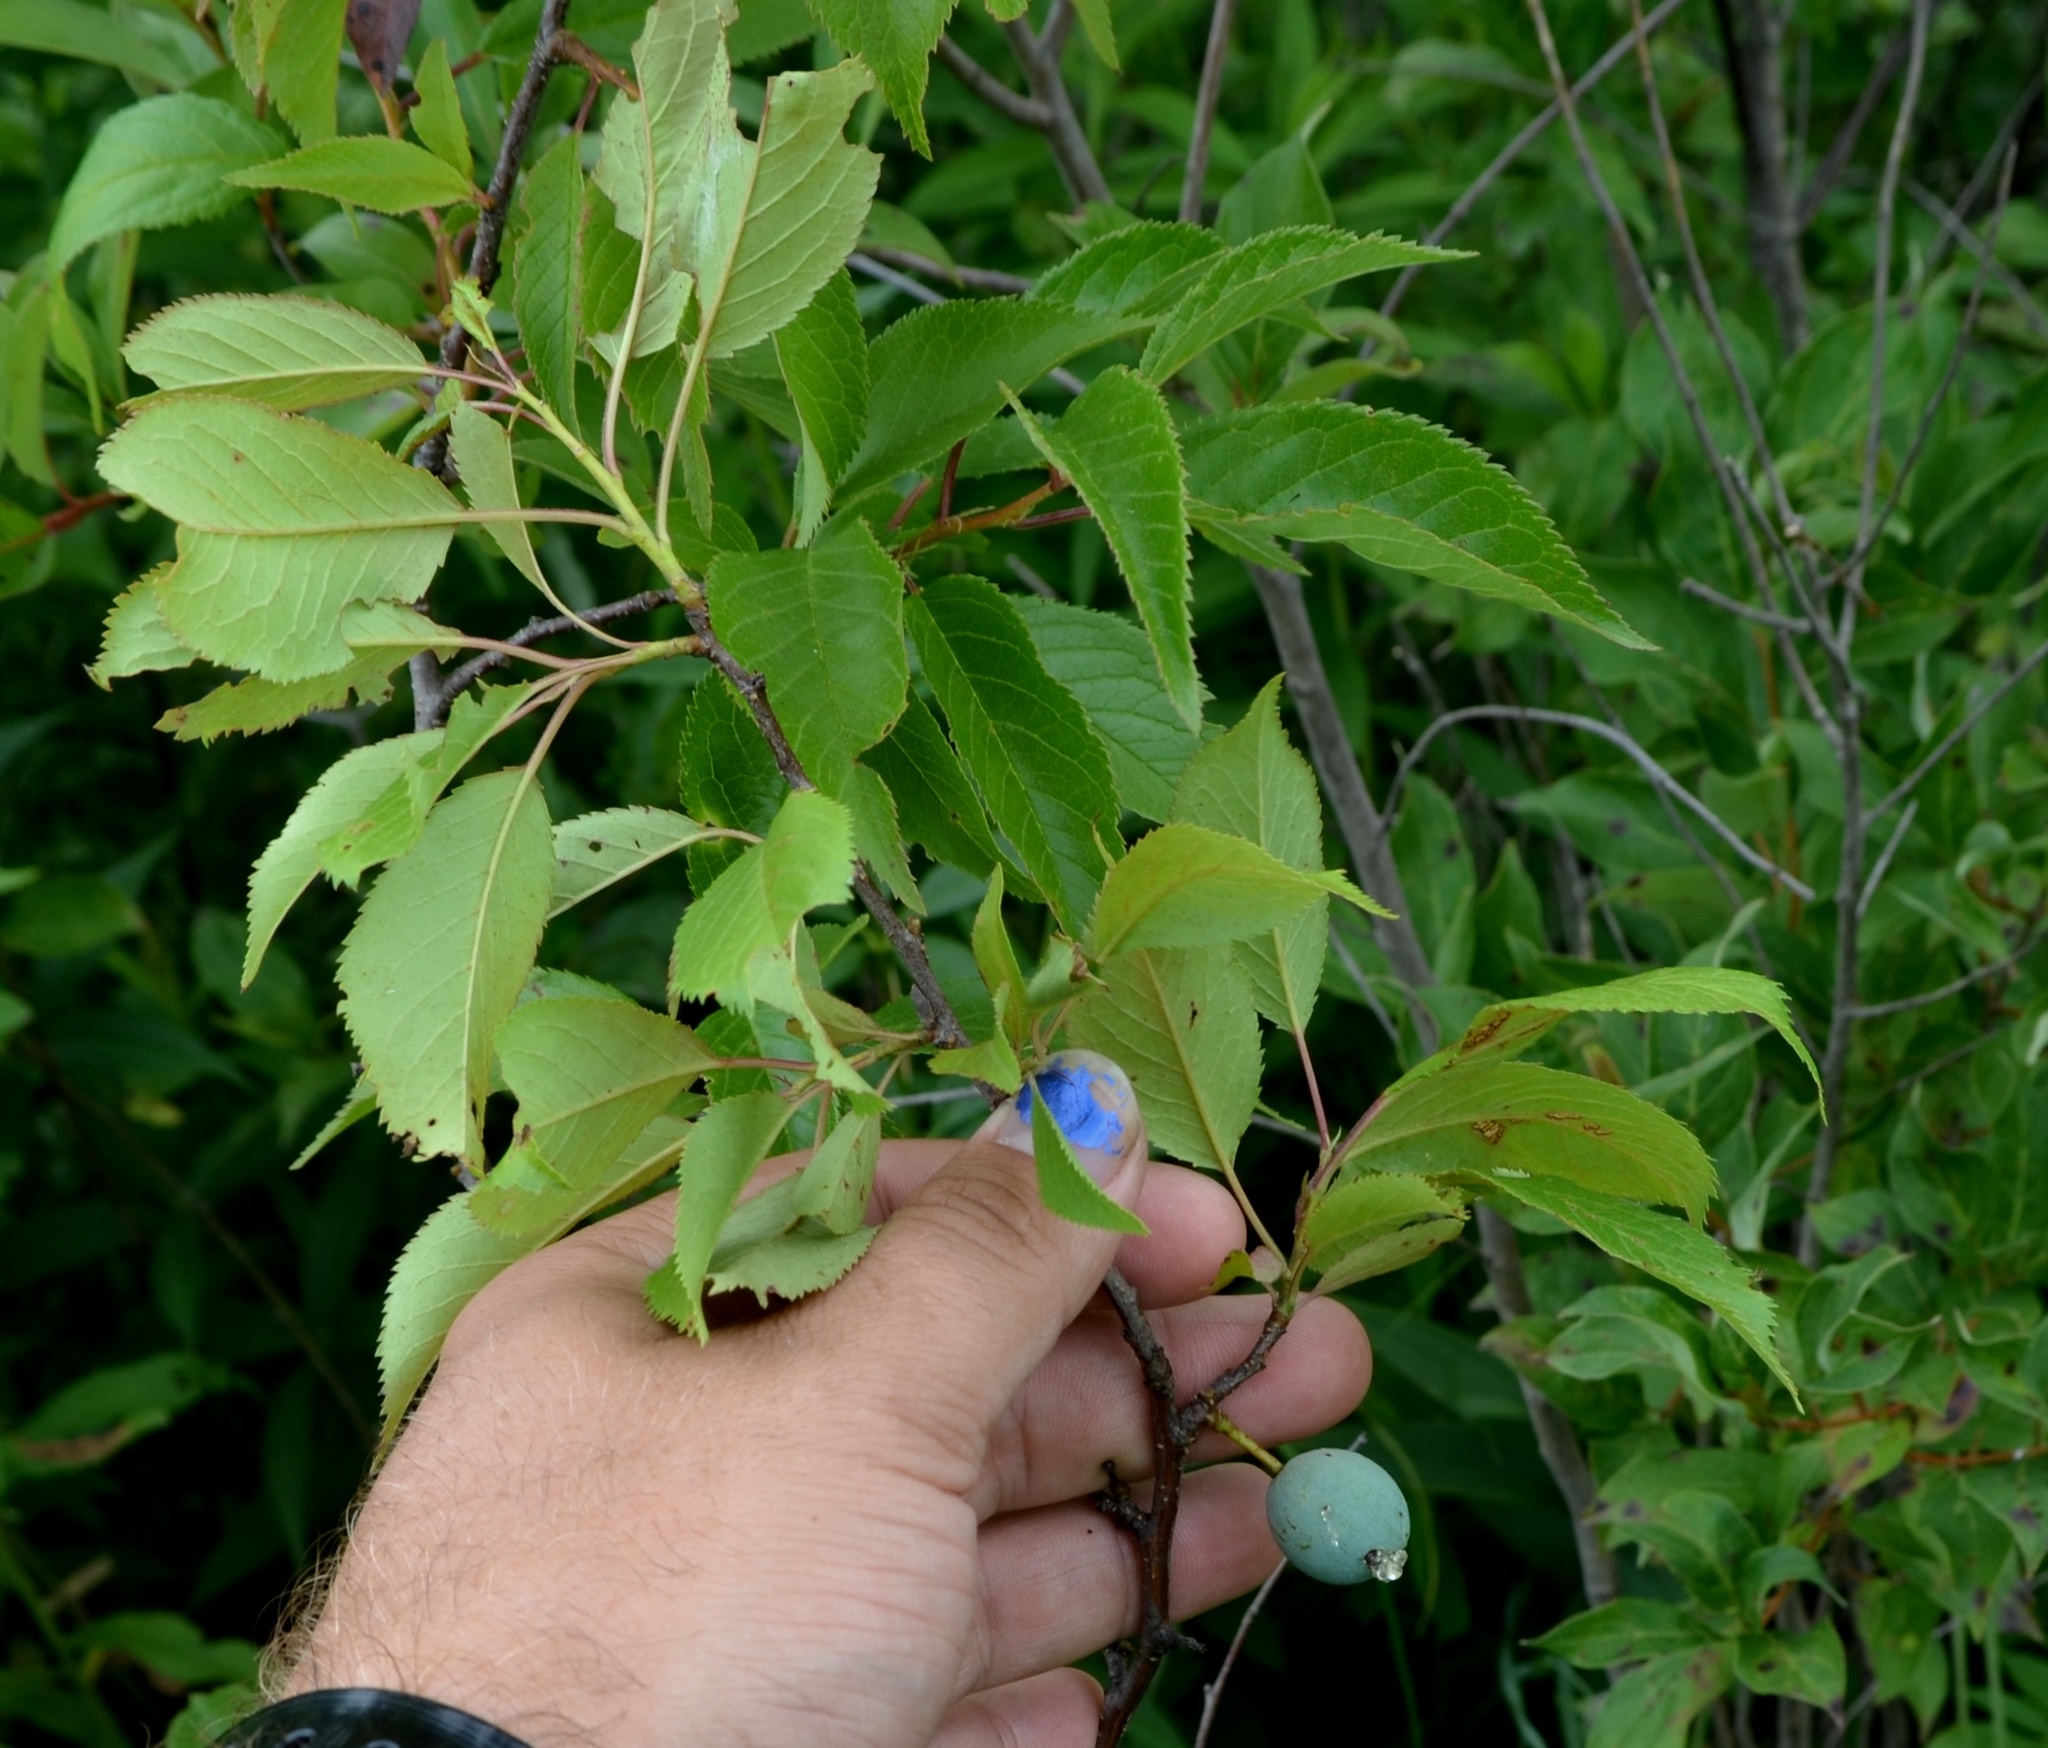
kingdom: Plantae
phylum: Tracheophyta
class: Magnoliopsida
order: Rosales
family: Rosaceae
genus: Prunus
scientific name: Prunus americana
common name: American plum
